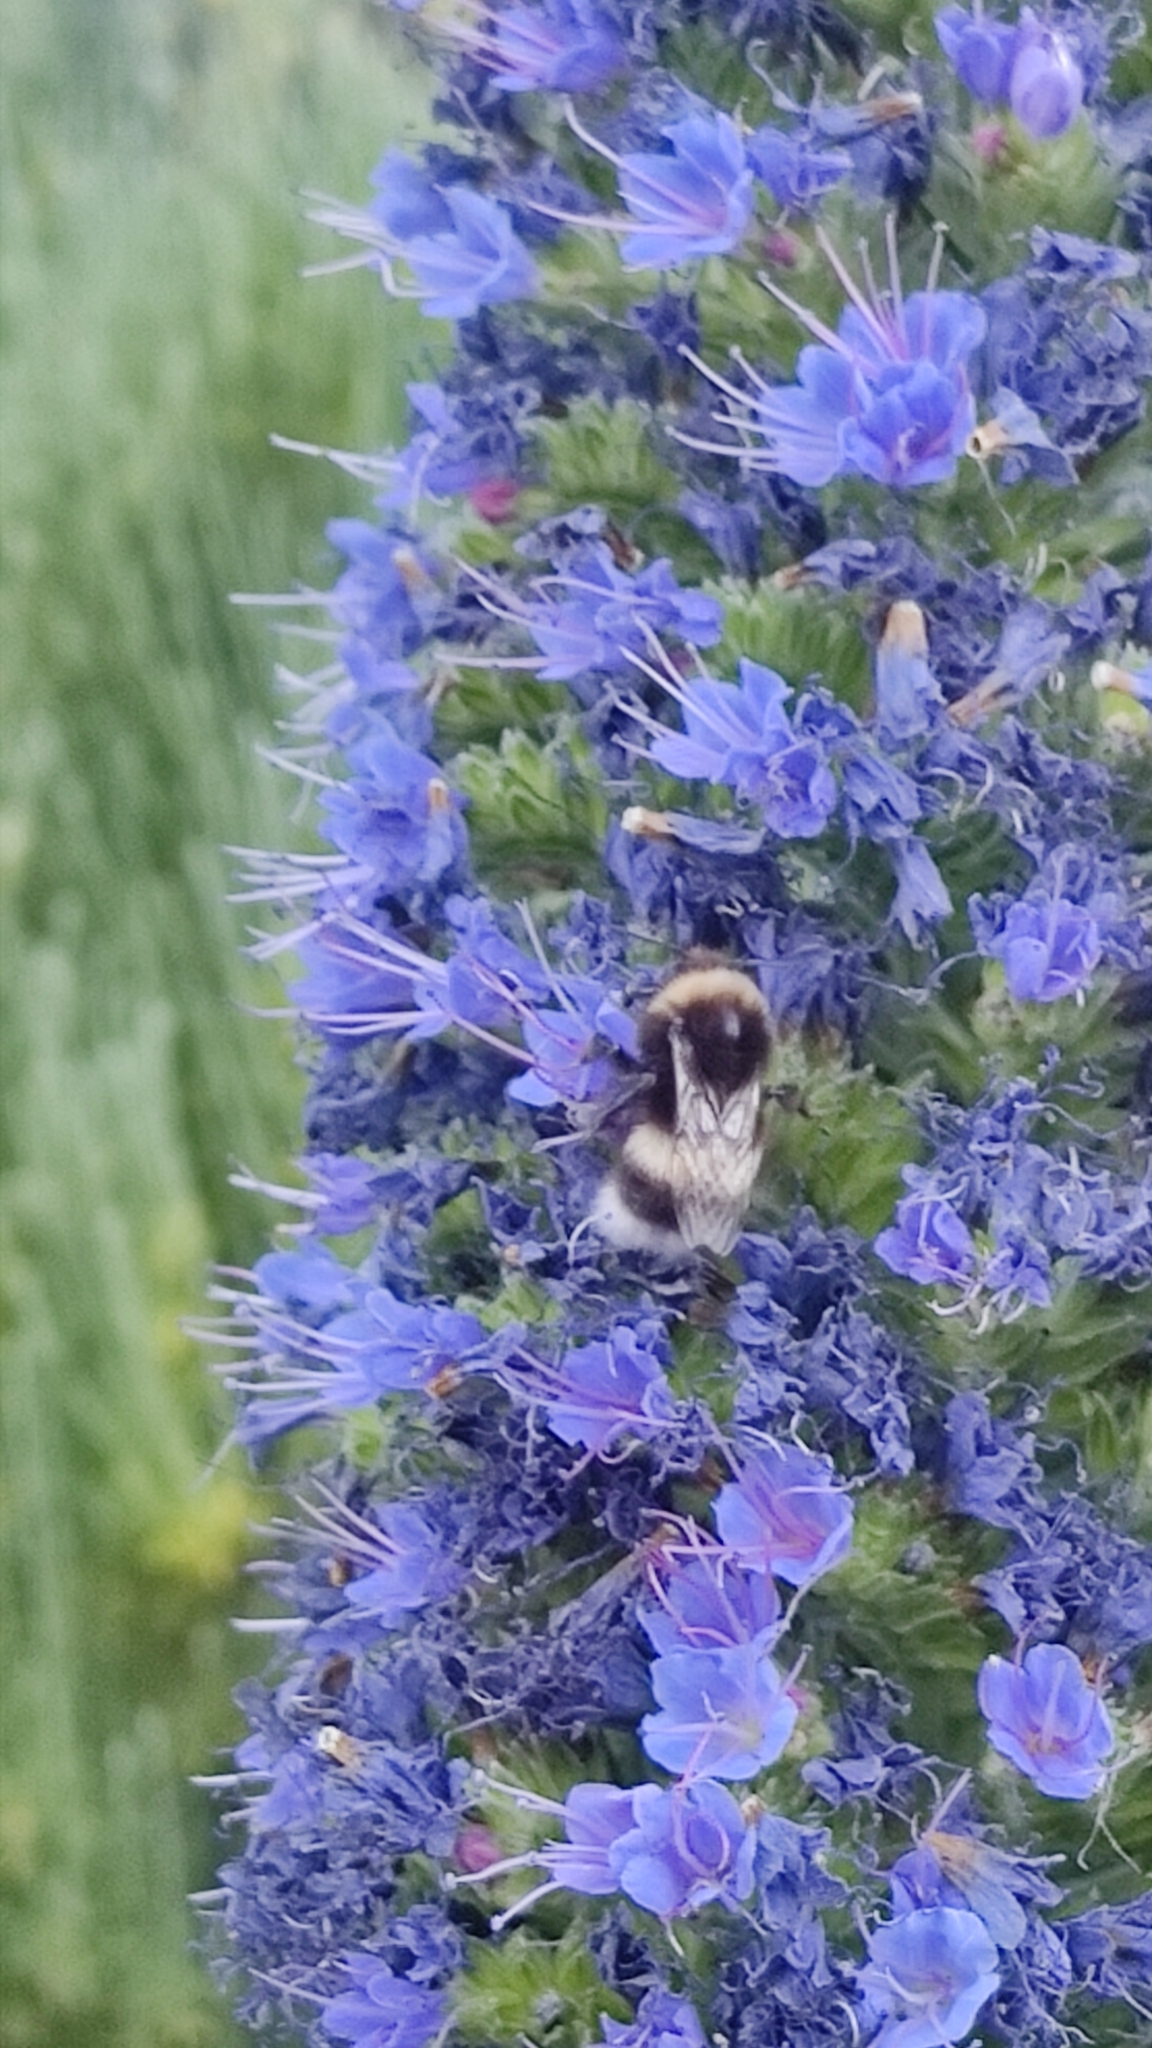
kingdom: Animalia
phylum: Arthropoda
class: Insecta
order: Hymenoptera
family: Apidae
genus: Bombus
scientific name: Bombus terrestris
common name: Buff-tailed bumblebee
